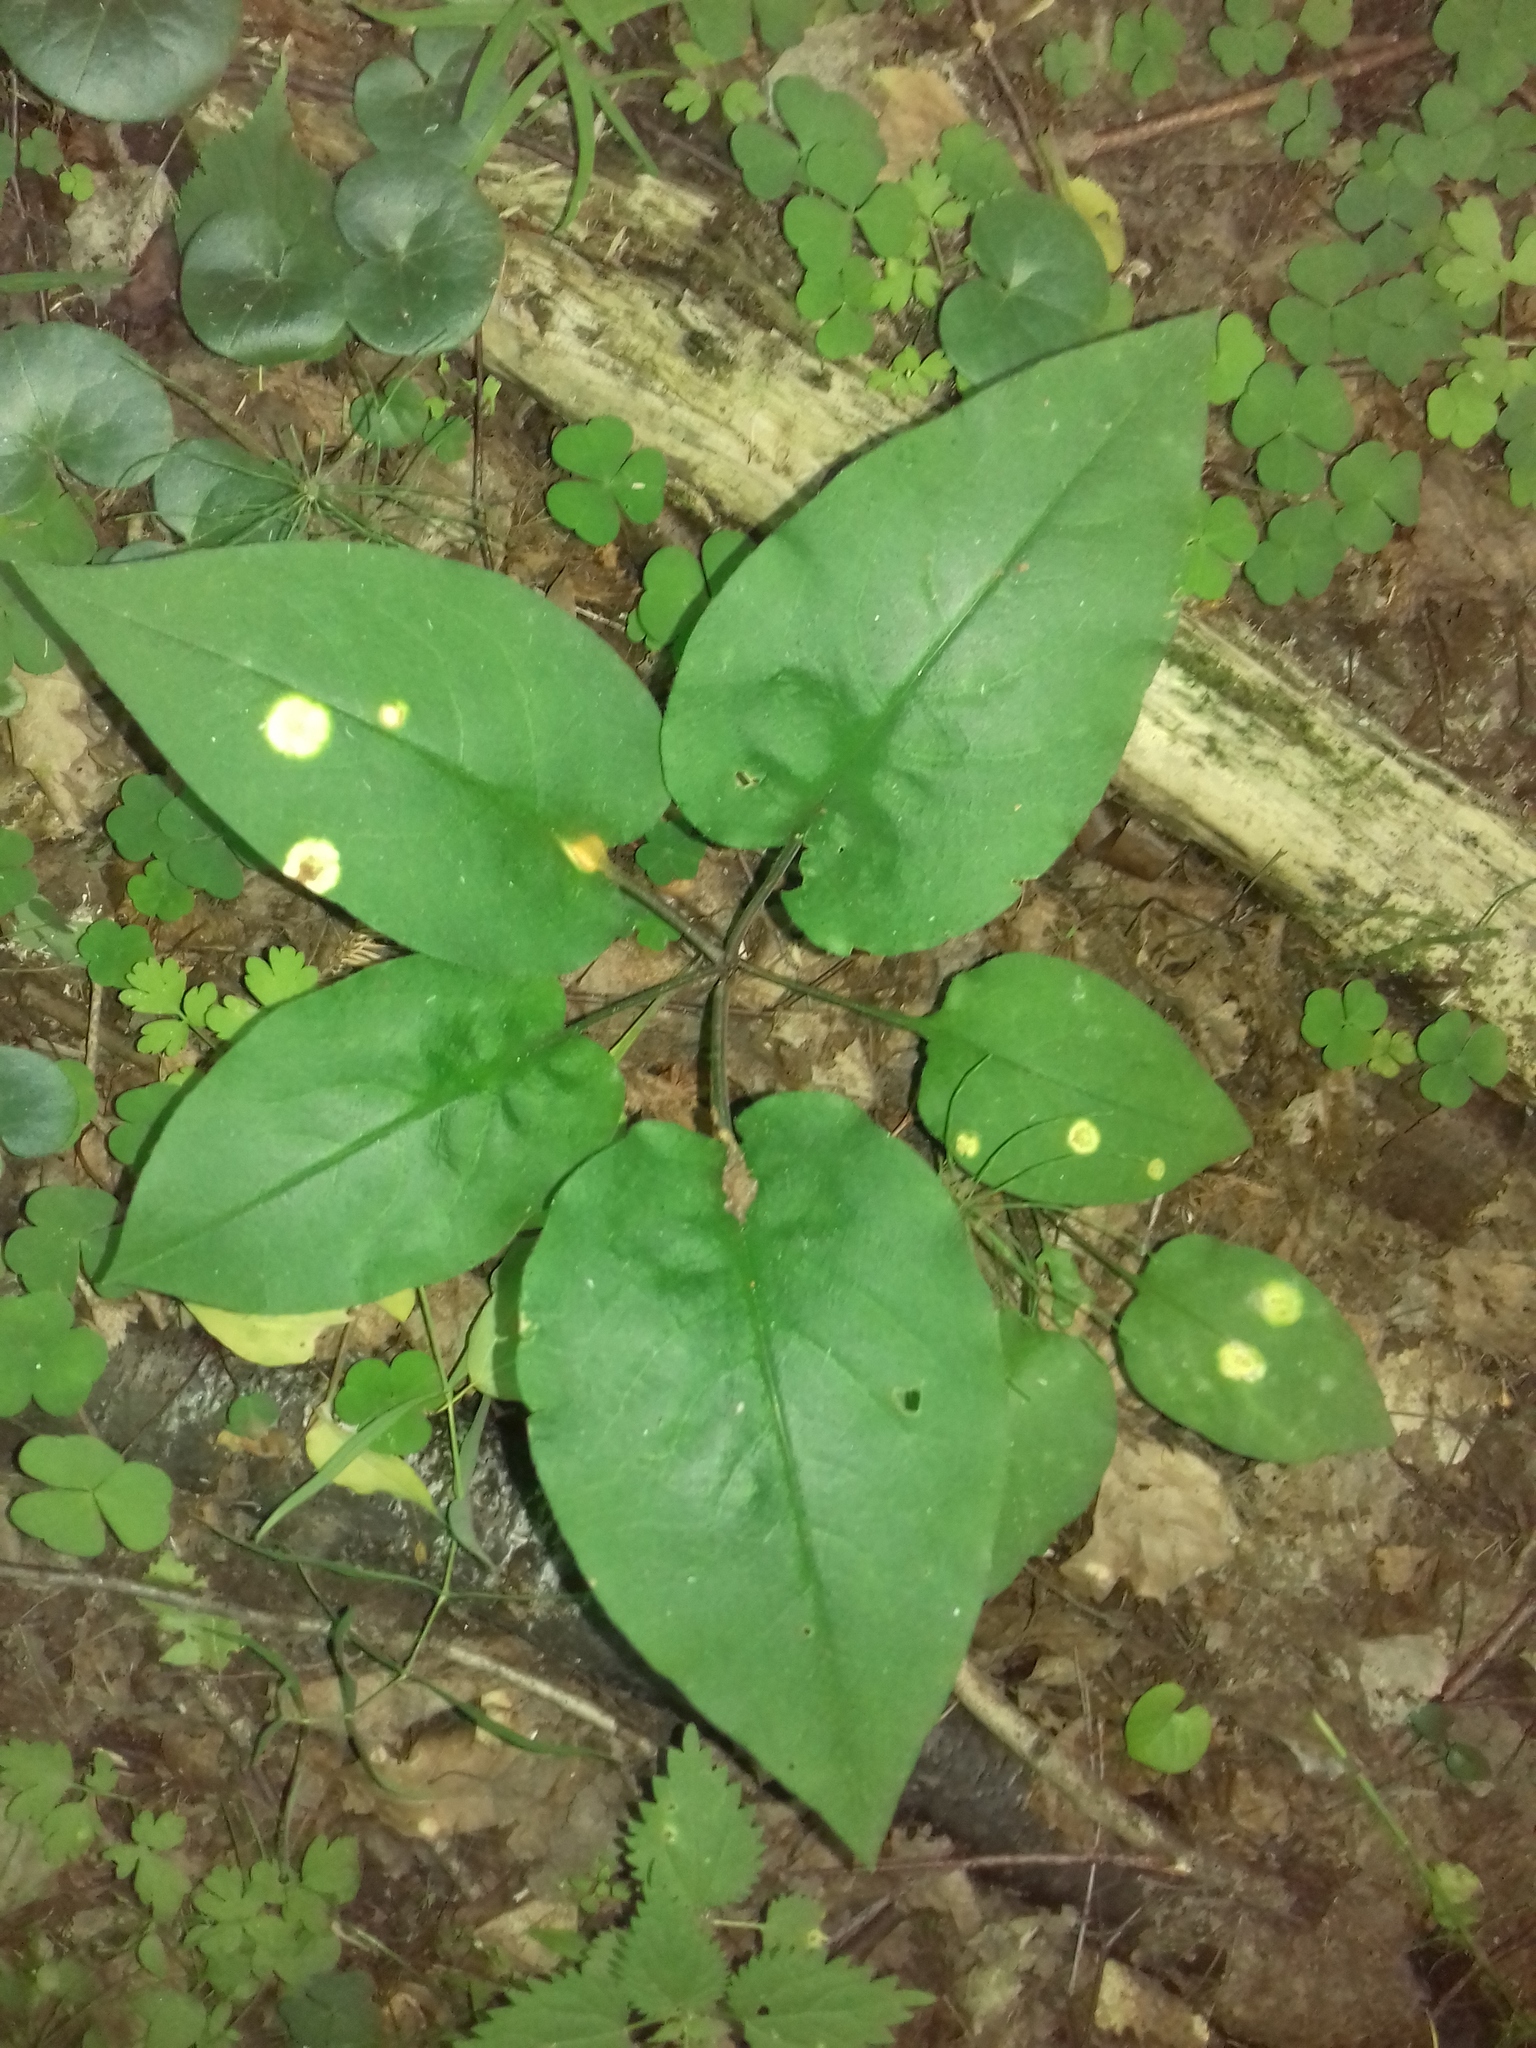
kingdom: Plantae
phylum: Tracheophyta
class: Magnoliopsida
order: Boraginales
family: Boraginaceae
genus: Pulmonaria
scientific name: Pulmonaria obscura
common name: Suffolk lungwort
